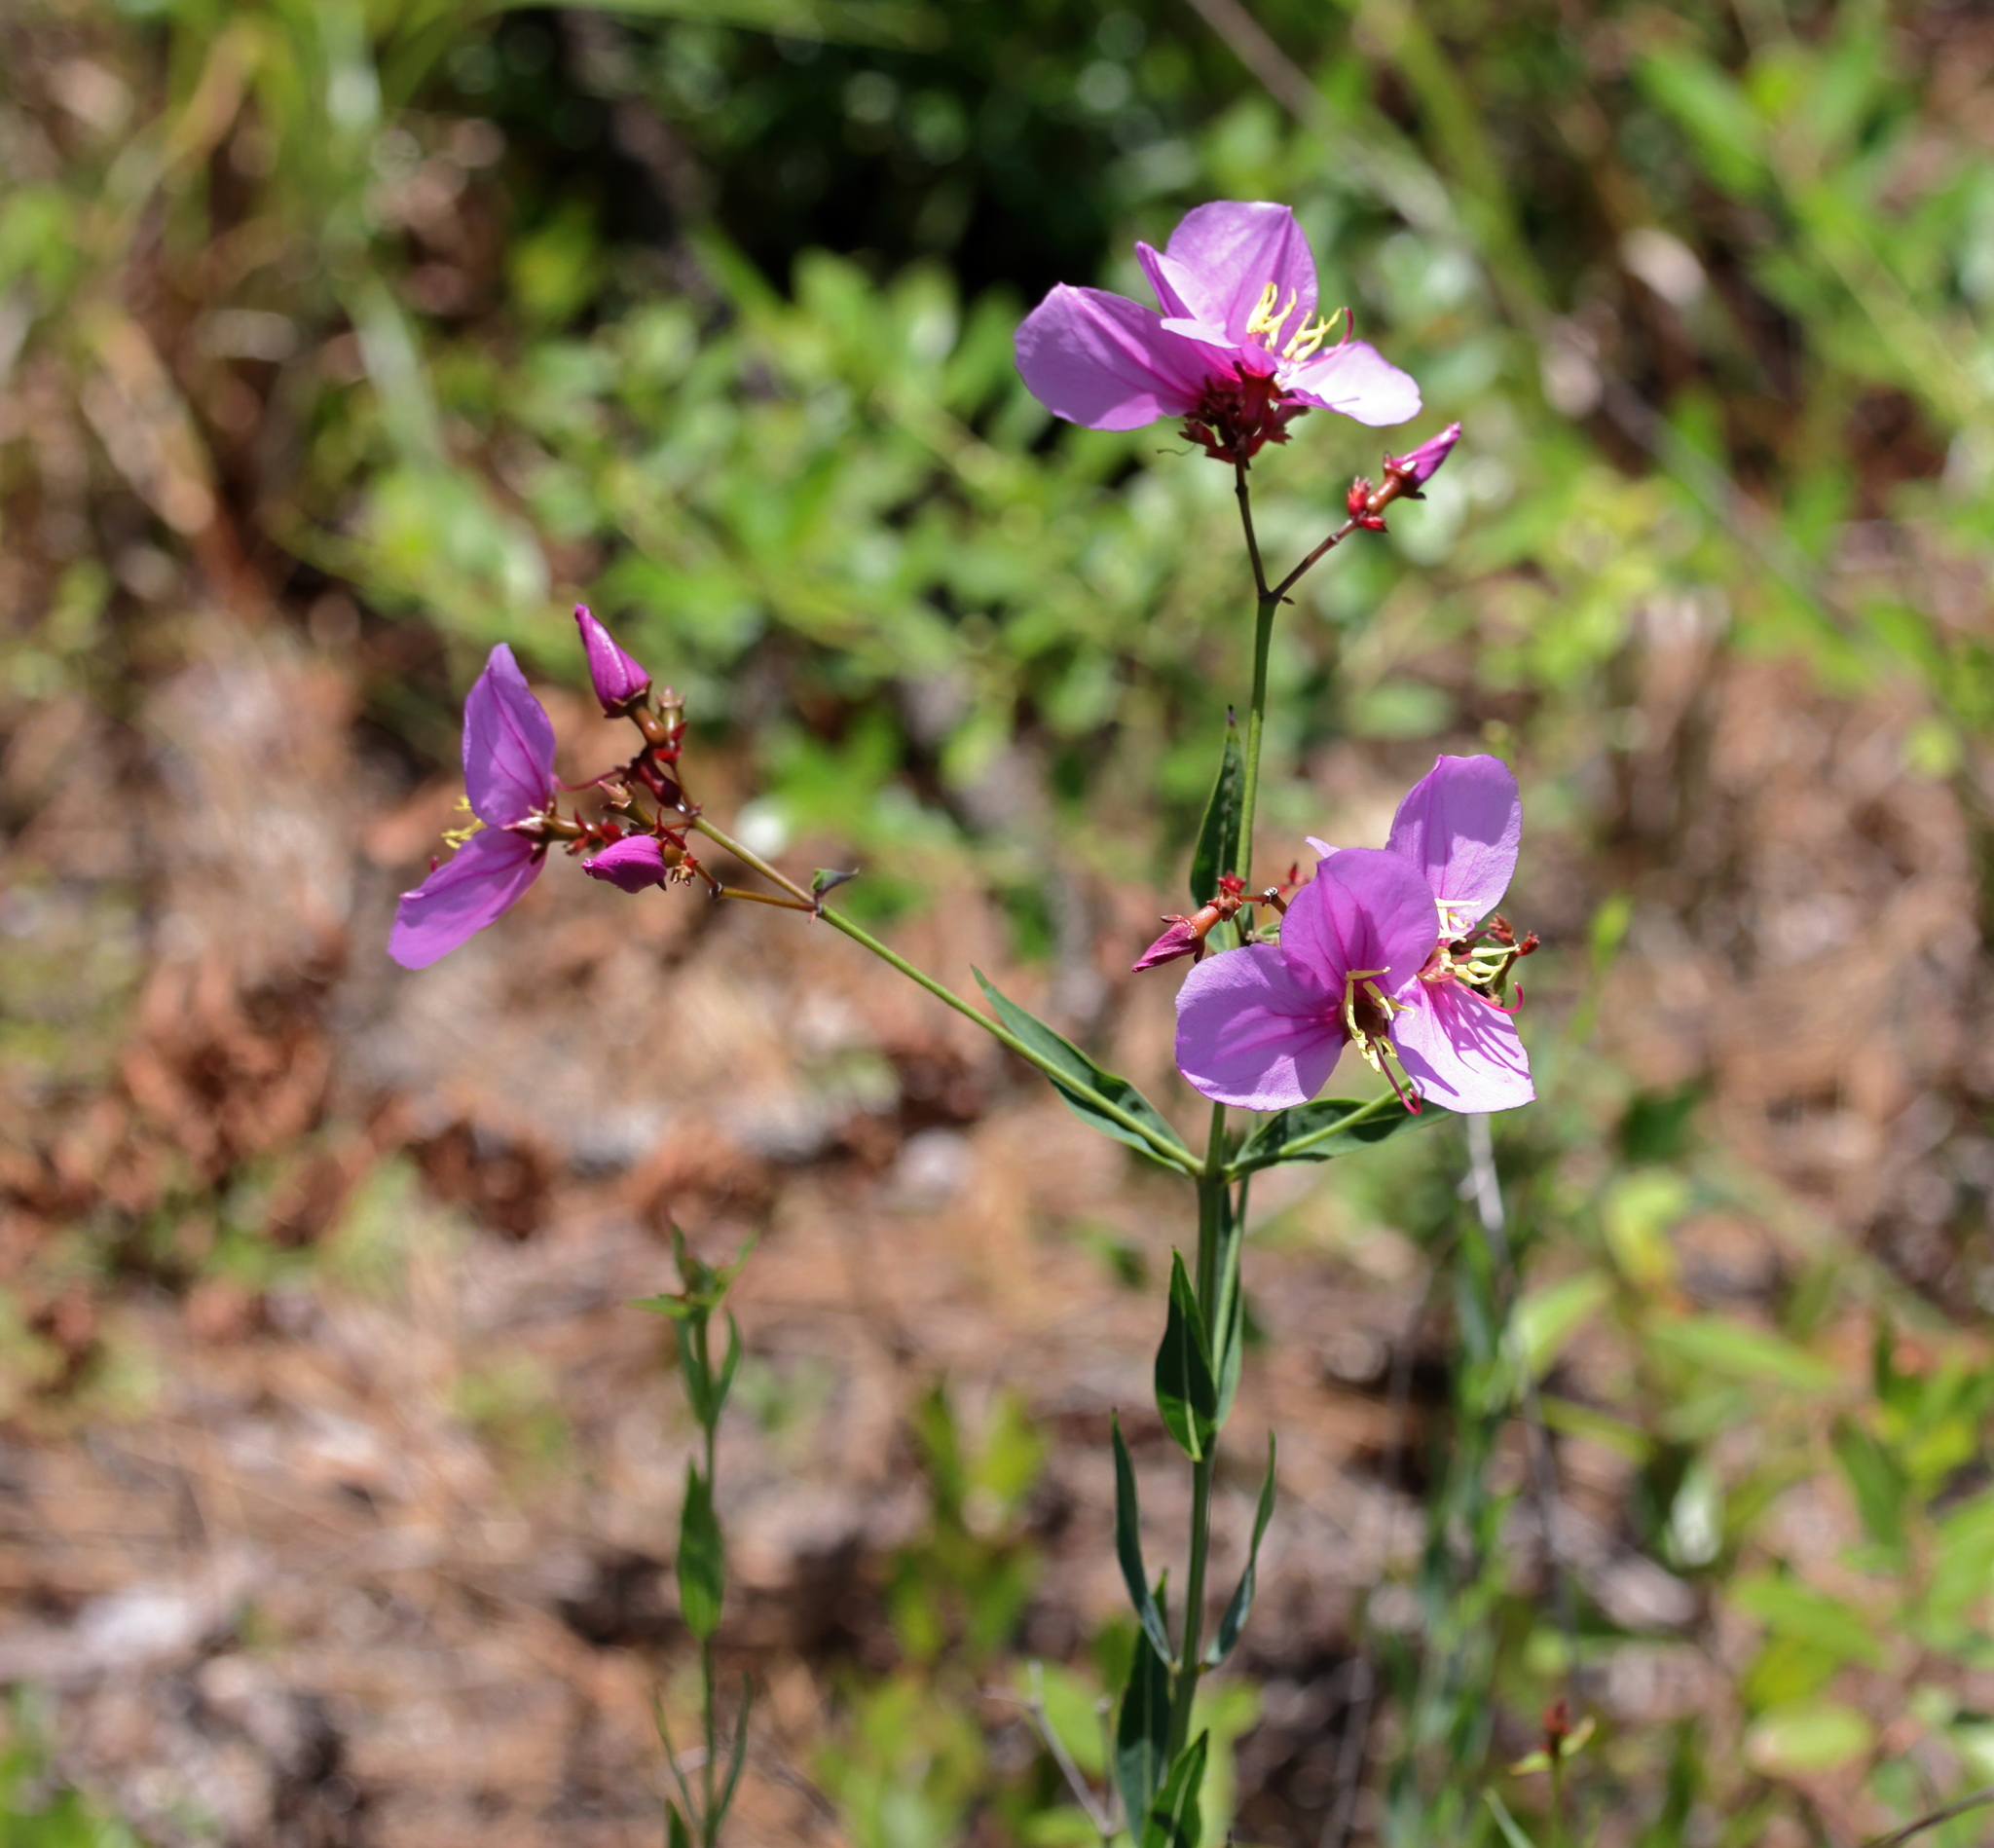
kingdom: Plantae
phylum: Tracheophyta
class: Magnoliopsida
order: Myrtales
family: Melastomataceae
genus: Rhexia
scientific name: Rhexia alifanus
